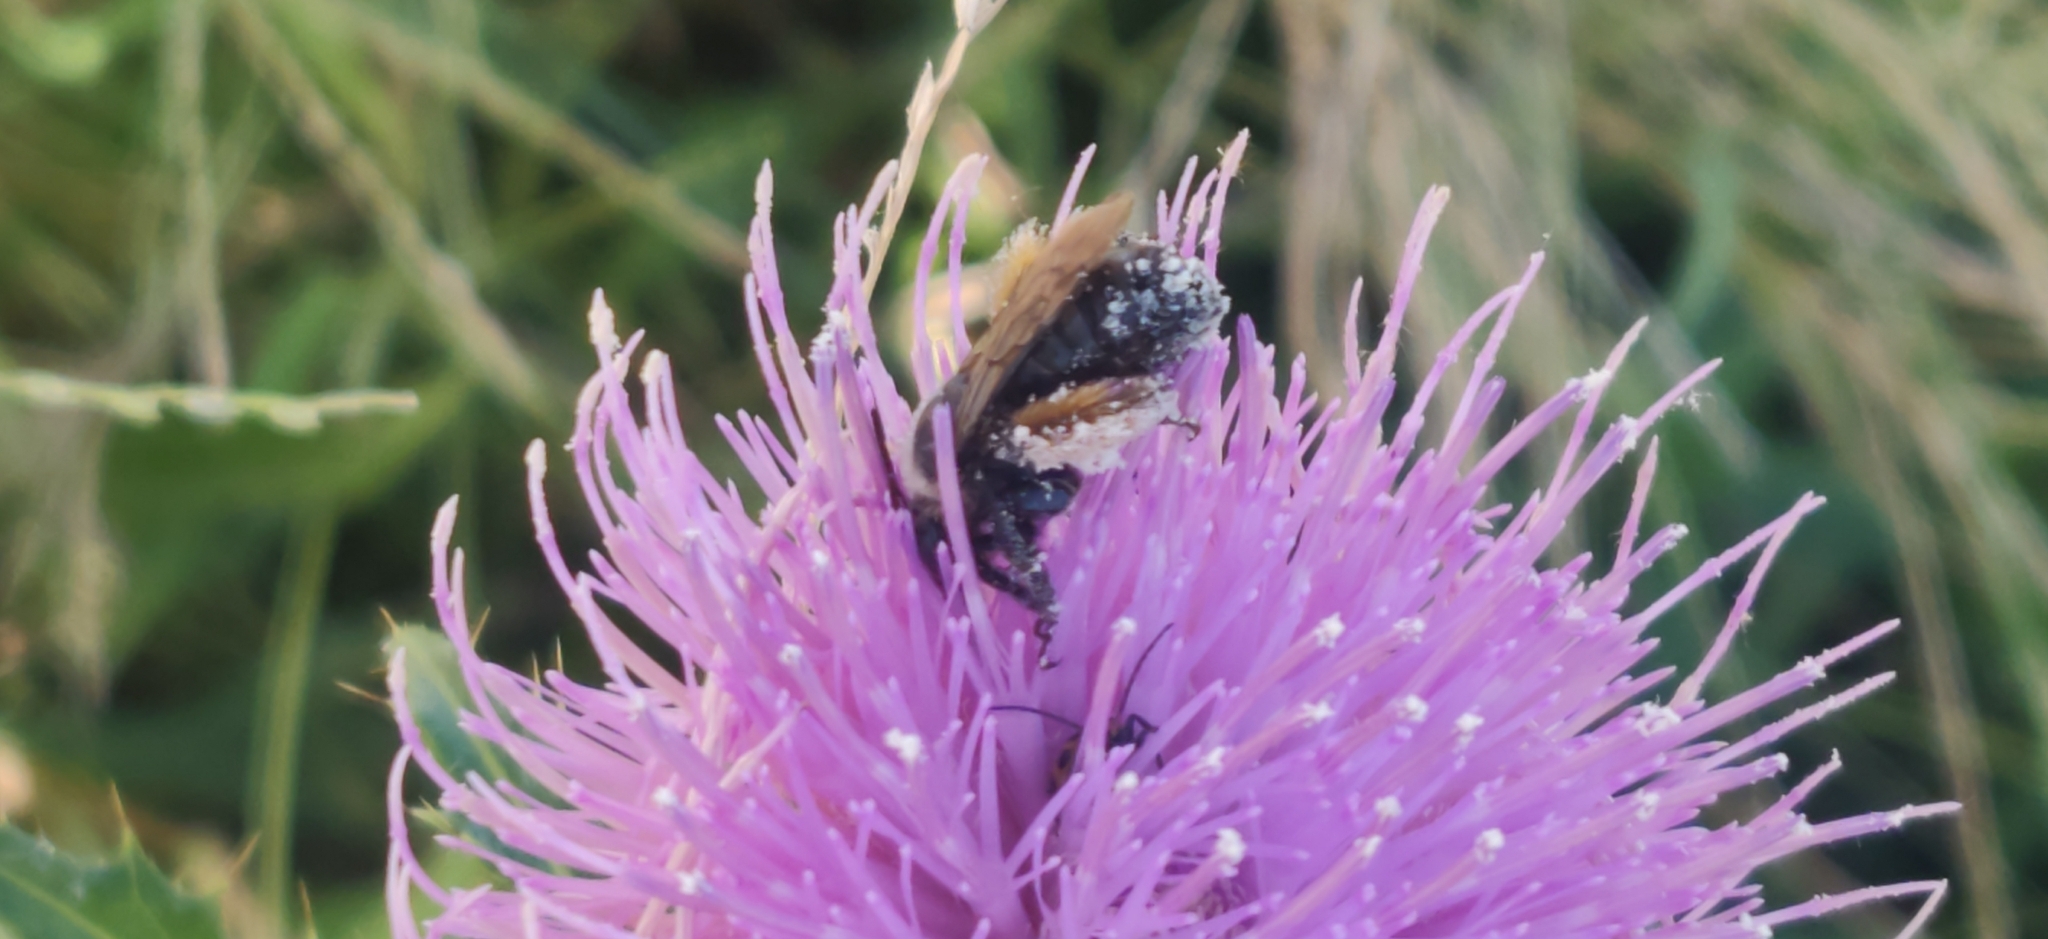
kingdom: Animalia
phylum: Arthropoda
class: Insecta
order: Hymenoptera
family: Apidae
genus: Melissodes
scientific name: Melissodes desponsus
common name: Thistle long-horned bee
